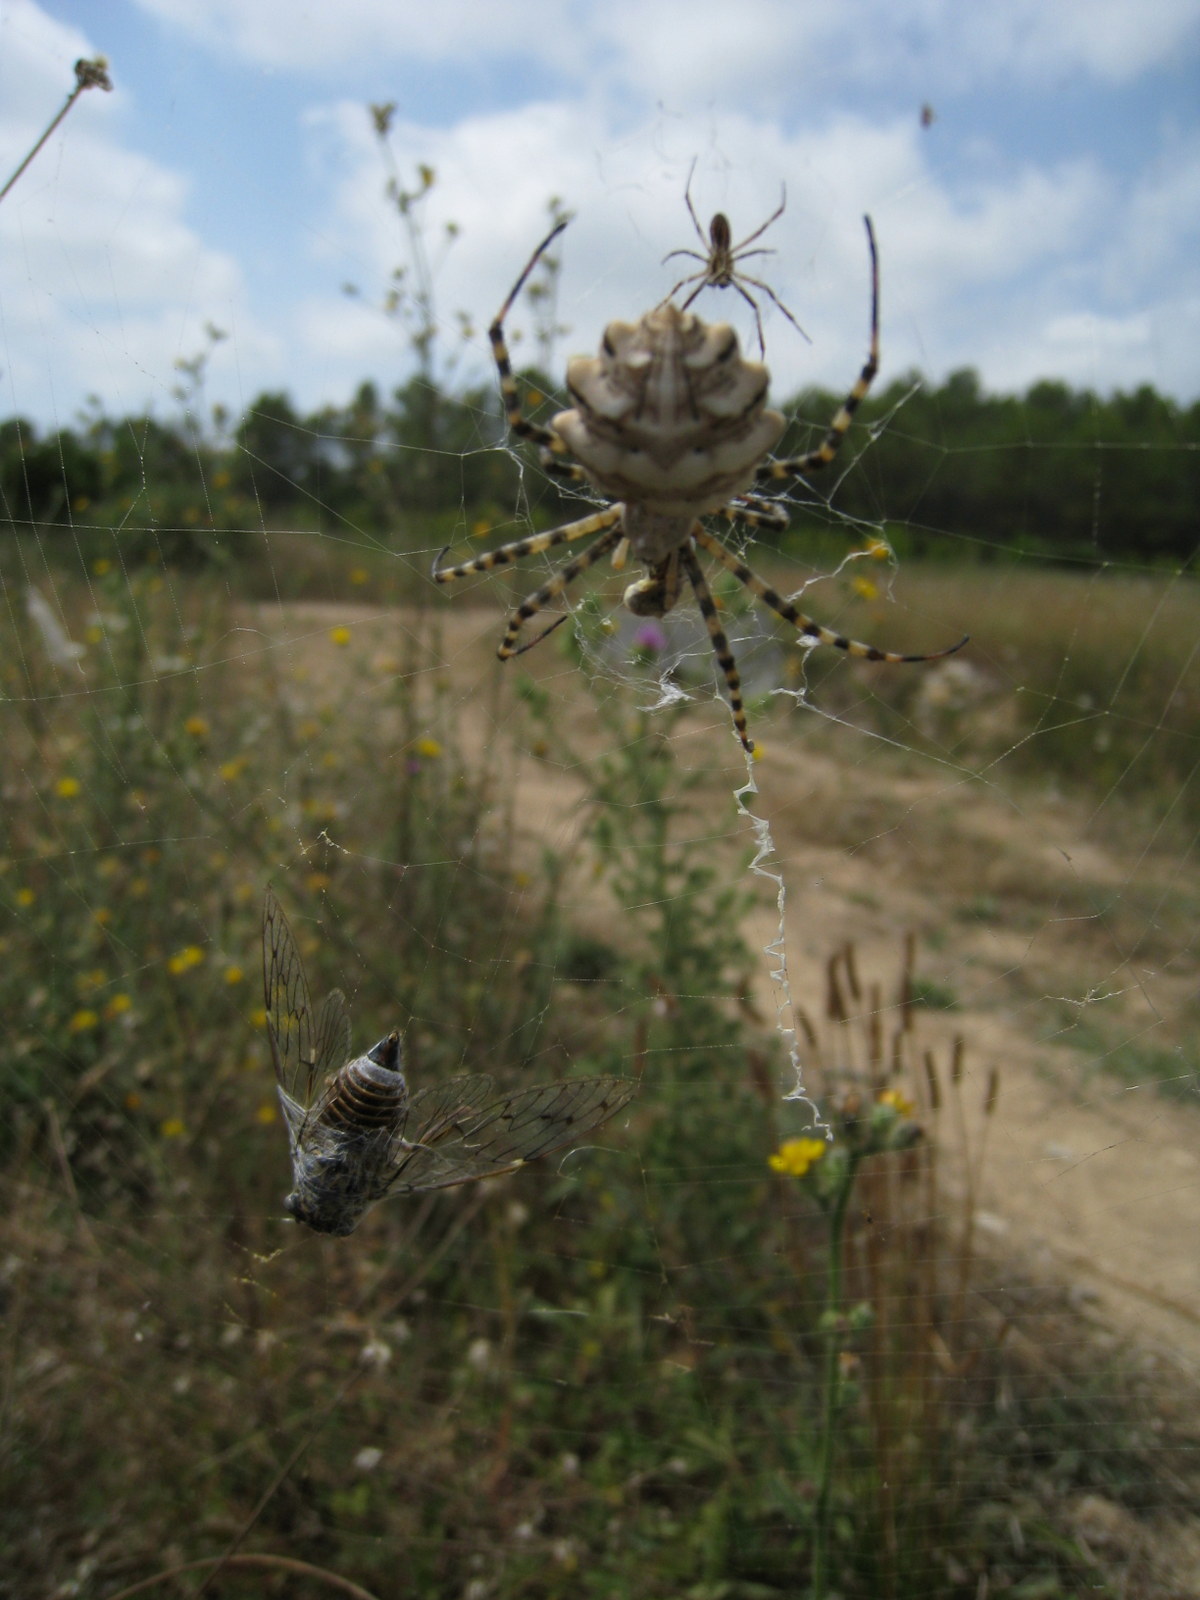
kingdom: Animalia
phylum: Arthropoda
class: Insecta
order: Hemiptera
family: Cicadidae
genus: Cicada
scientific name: Cicada orni
